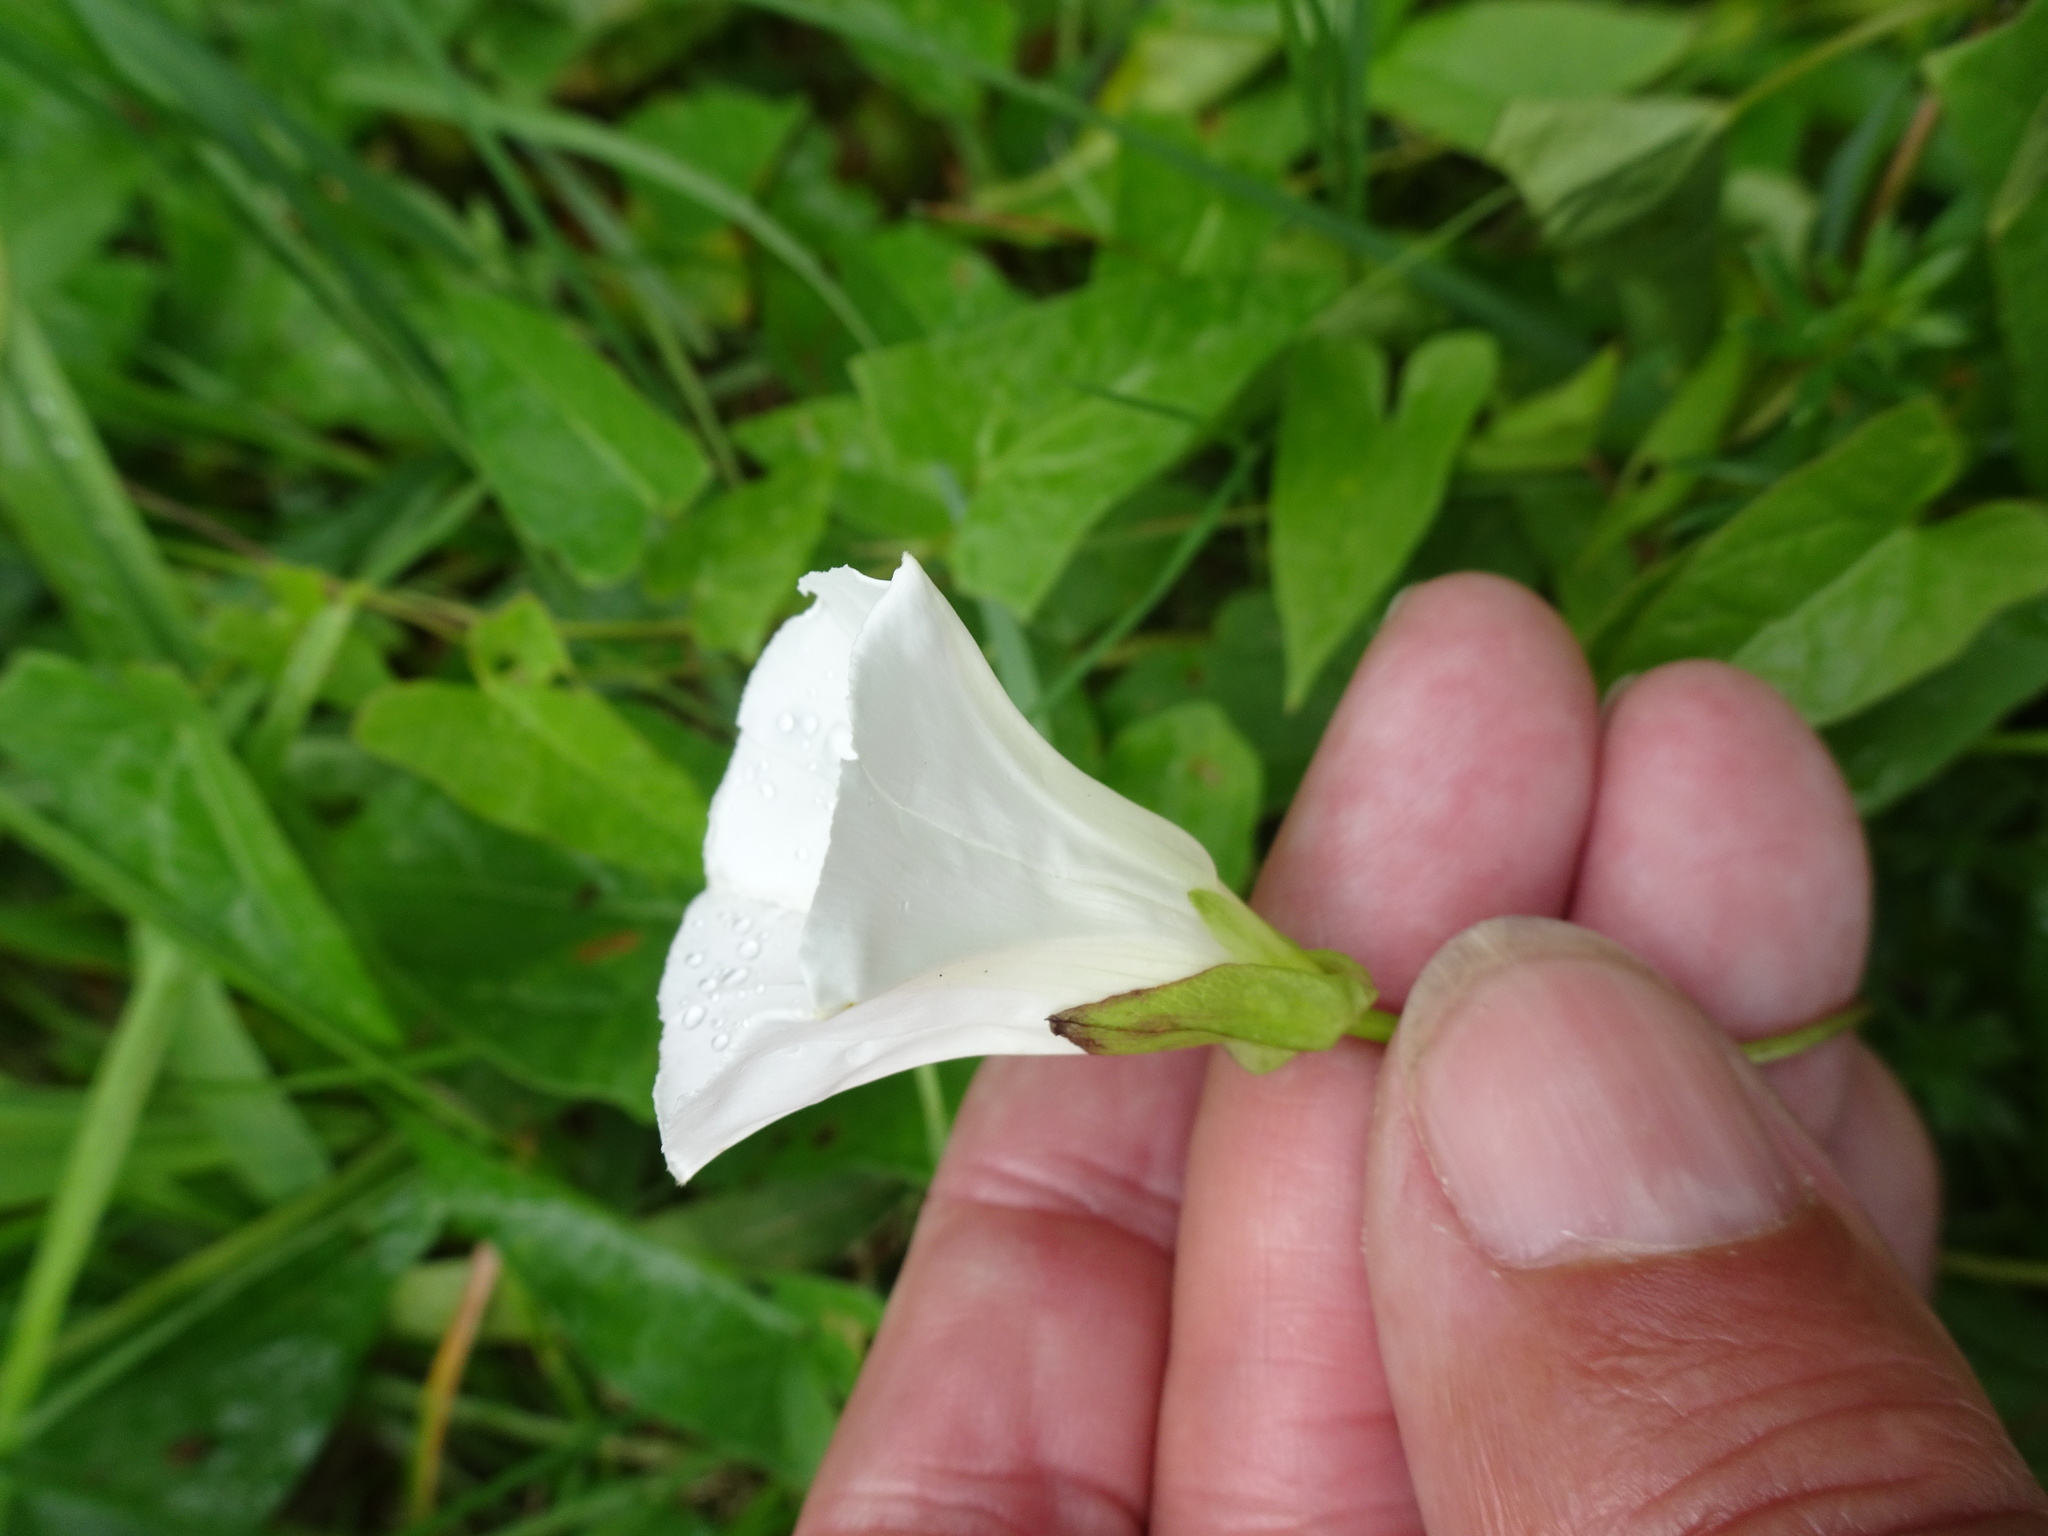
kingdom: Plantae
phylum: Tracheophyta
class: Magnoliopsida
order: Solanales
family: Convolvulaceae
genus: Calystegia
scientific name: Calystegia sepium
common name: Hedge bindweed
